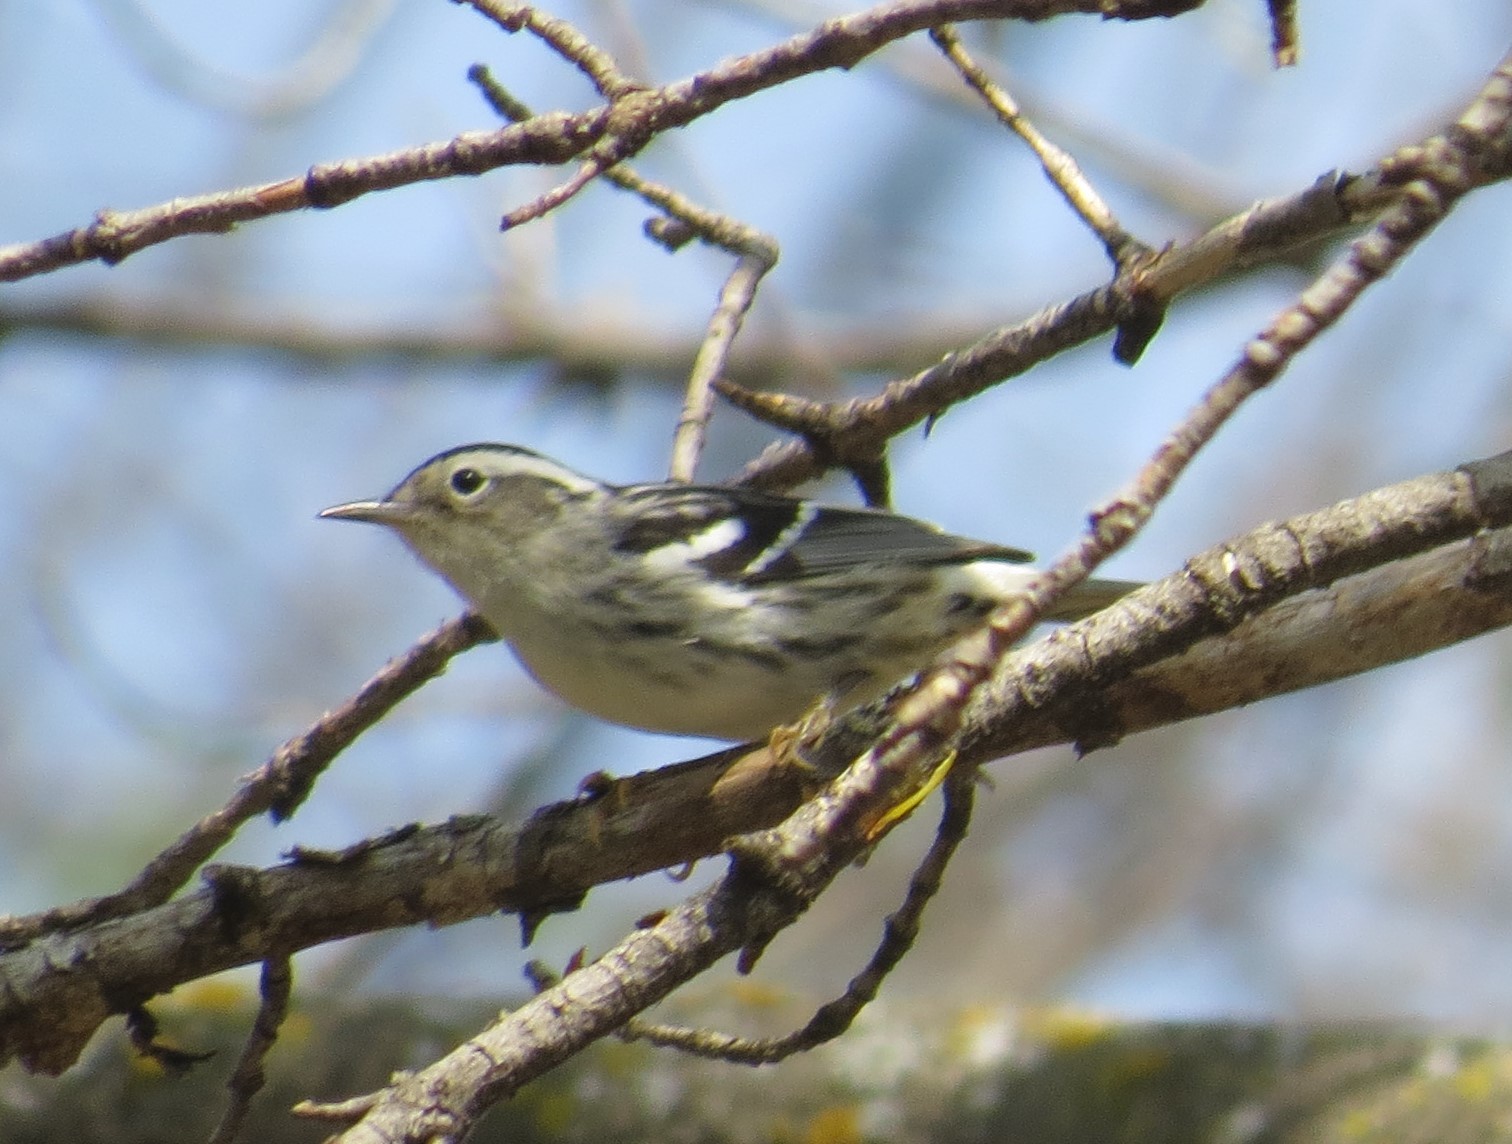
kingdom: Animalia
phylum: Chordata
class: Aves
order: Passeriformes
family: Parulidae
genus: Mniotilta
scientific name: Mniotilta varia
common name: Black-and-white warbler
